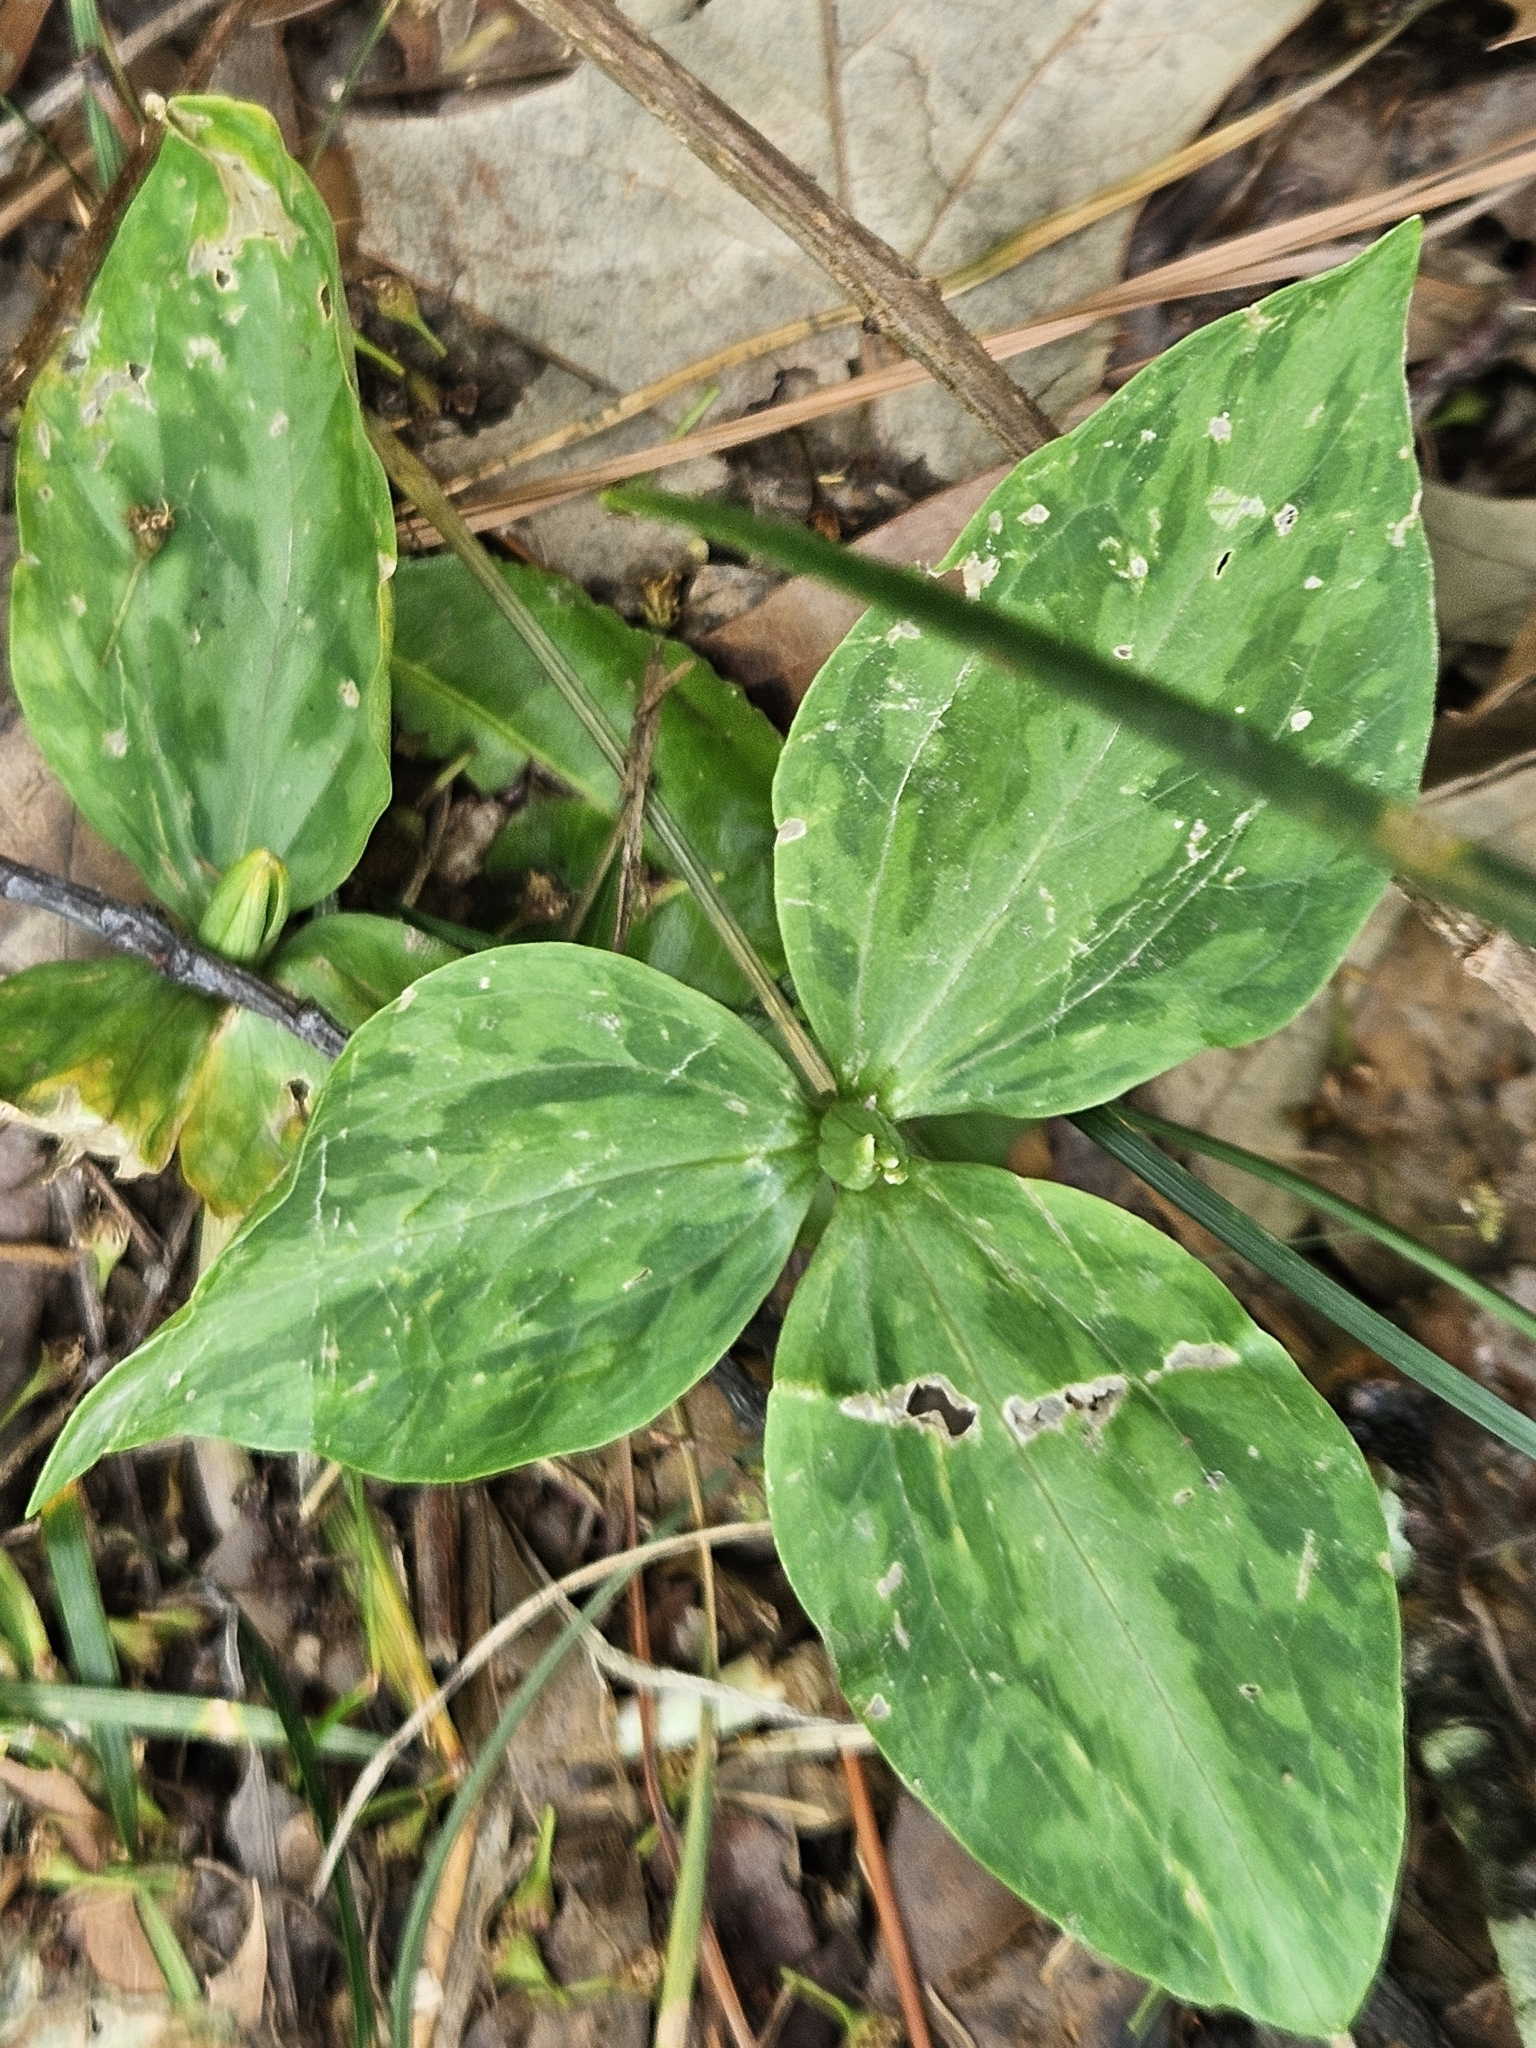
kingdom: Plantae
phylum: Tracheophyta
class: Liliopsida
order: Liliales
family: Melanthiaceae
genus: Trillium
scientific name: Trillium foetidissimum
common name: Mississippi river trillium
